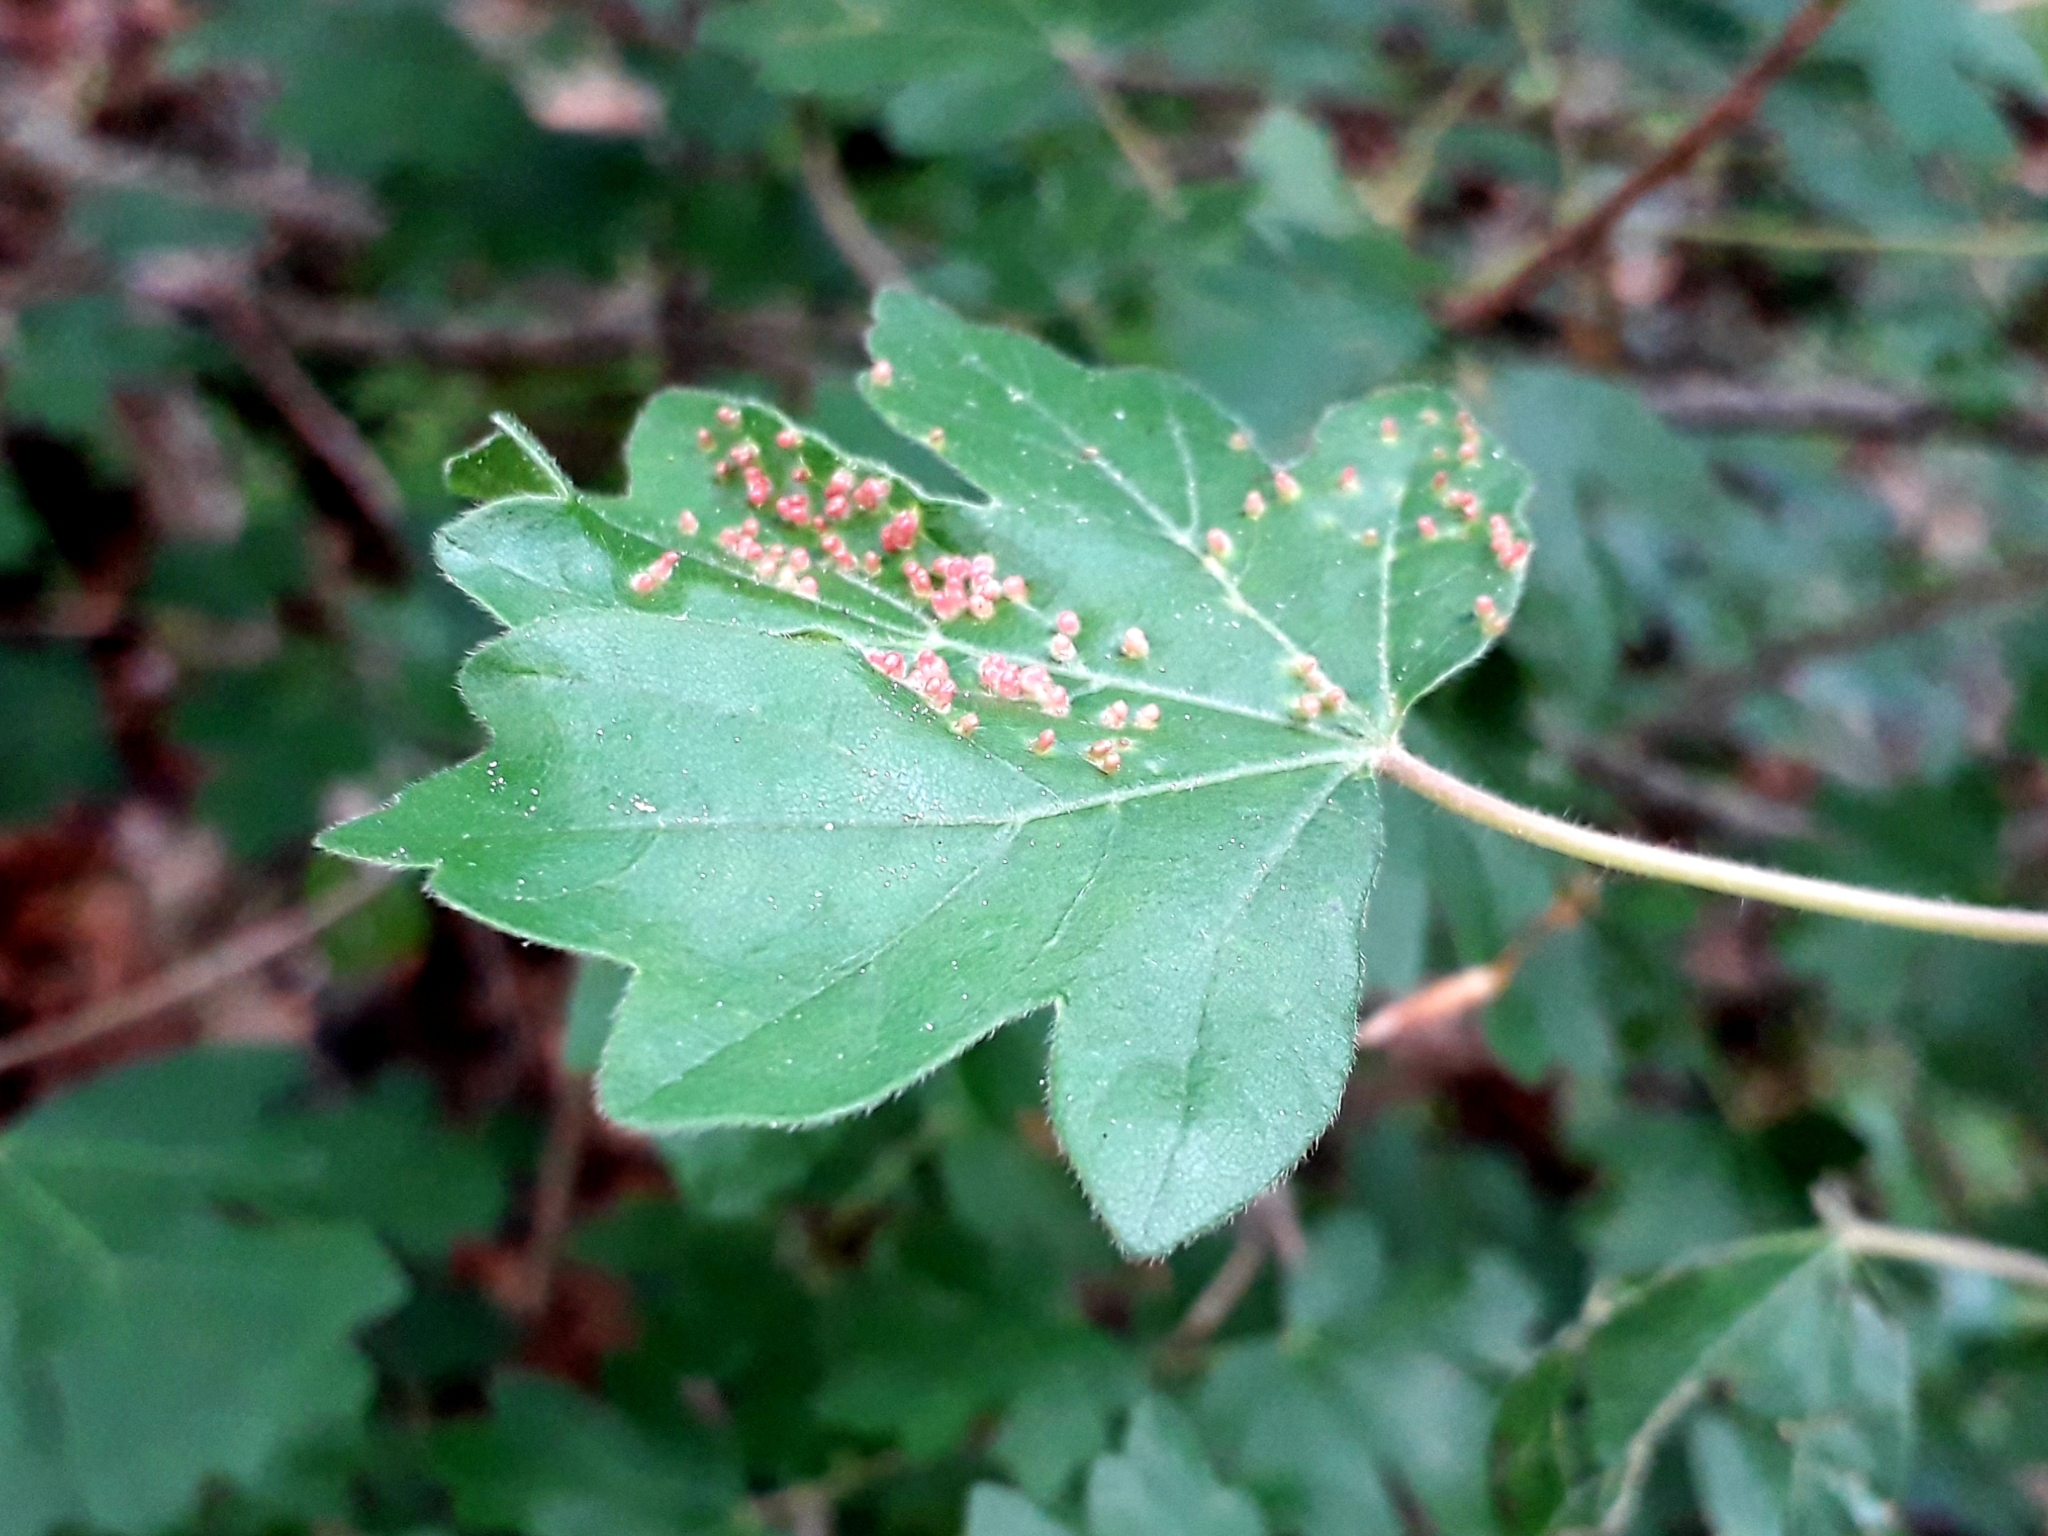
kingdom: Animalia
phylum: Arthropoda
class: Arachnida
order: Trombidiformes
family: Eriophyidae
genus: Aceria
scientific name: Aceria myriadeum
